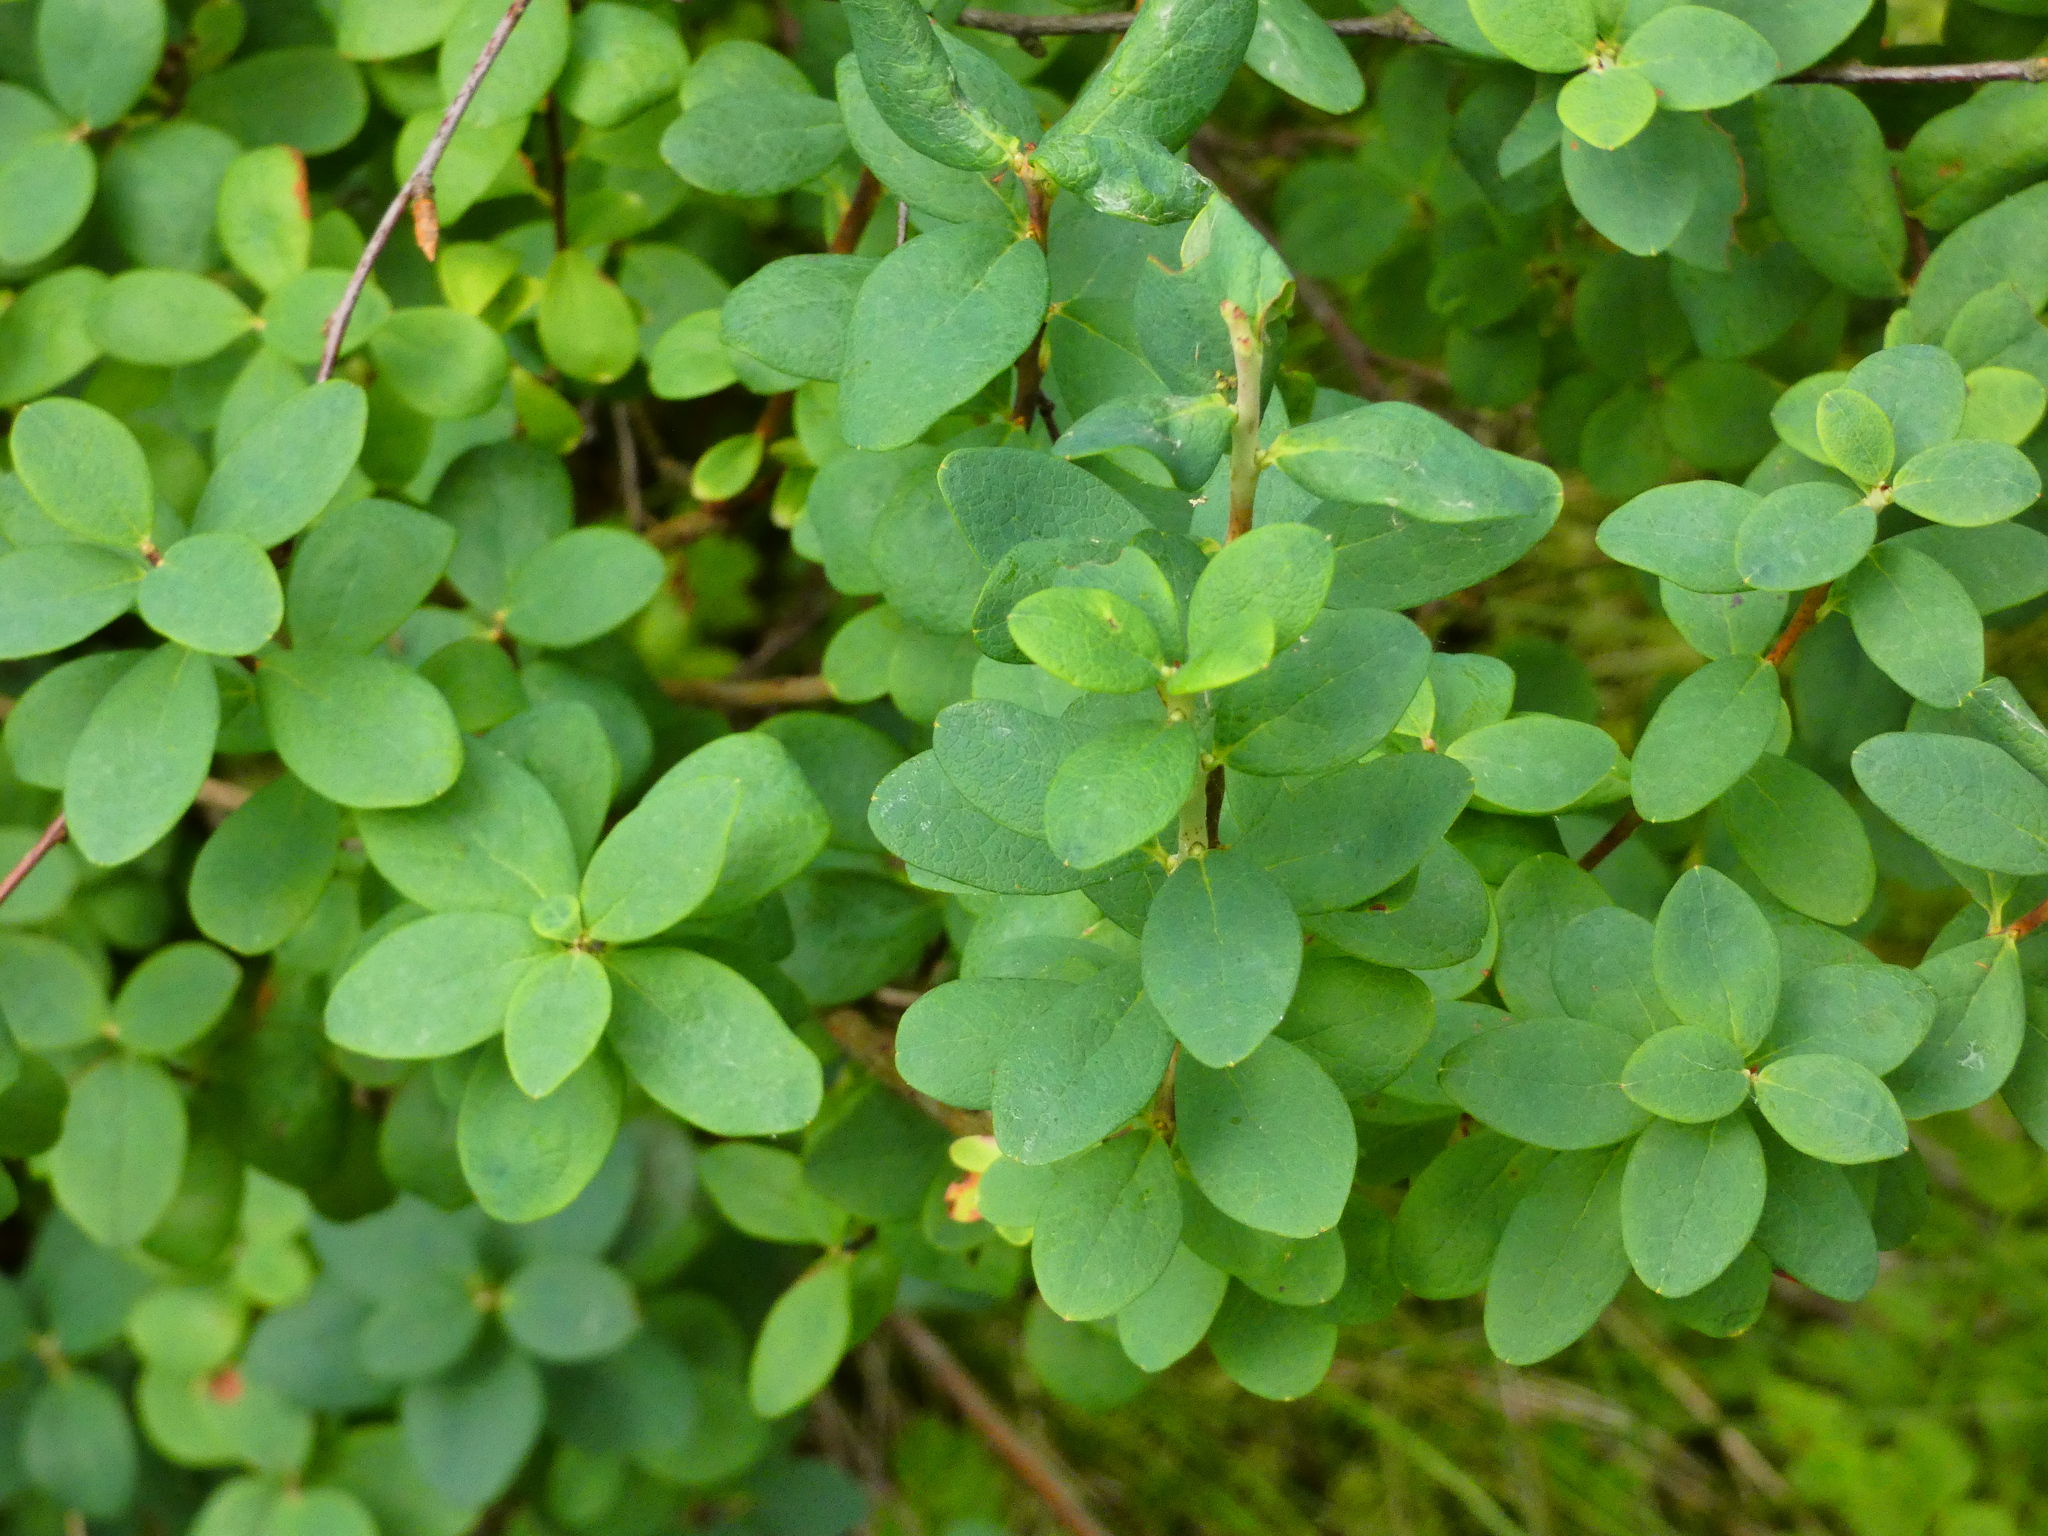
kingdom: Plantae
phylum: Tracheophyta
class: Magnoliopsida
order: Ericales
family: Ericaceae
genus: Vaccinium
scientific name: Vaccinium uliginosum
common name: Bog bilberry
